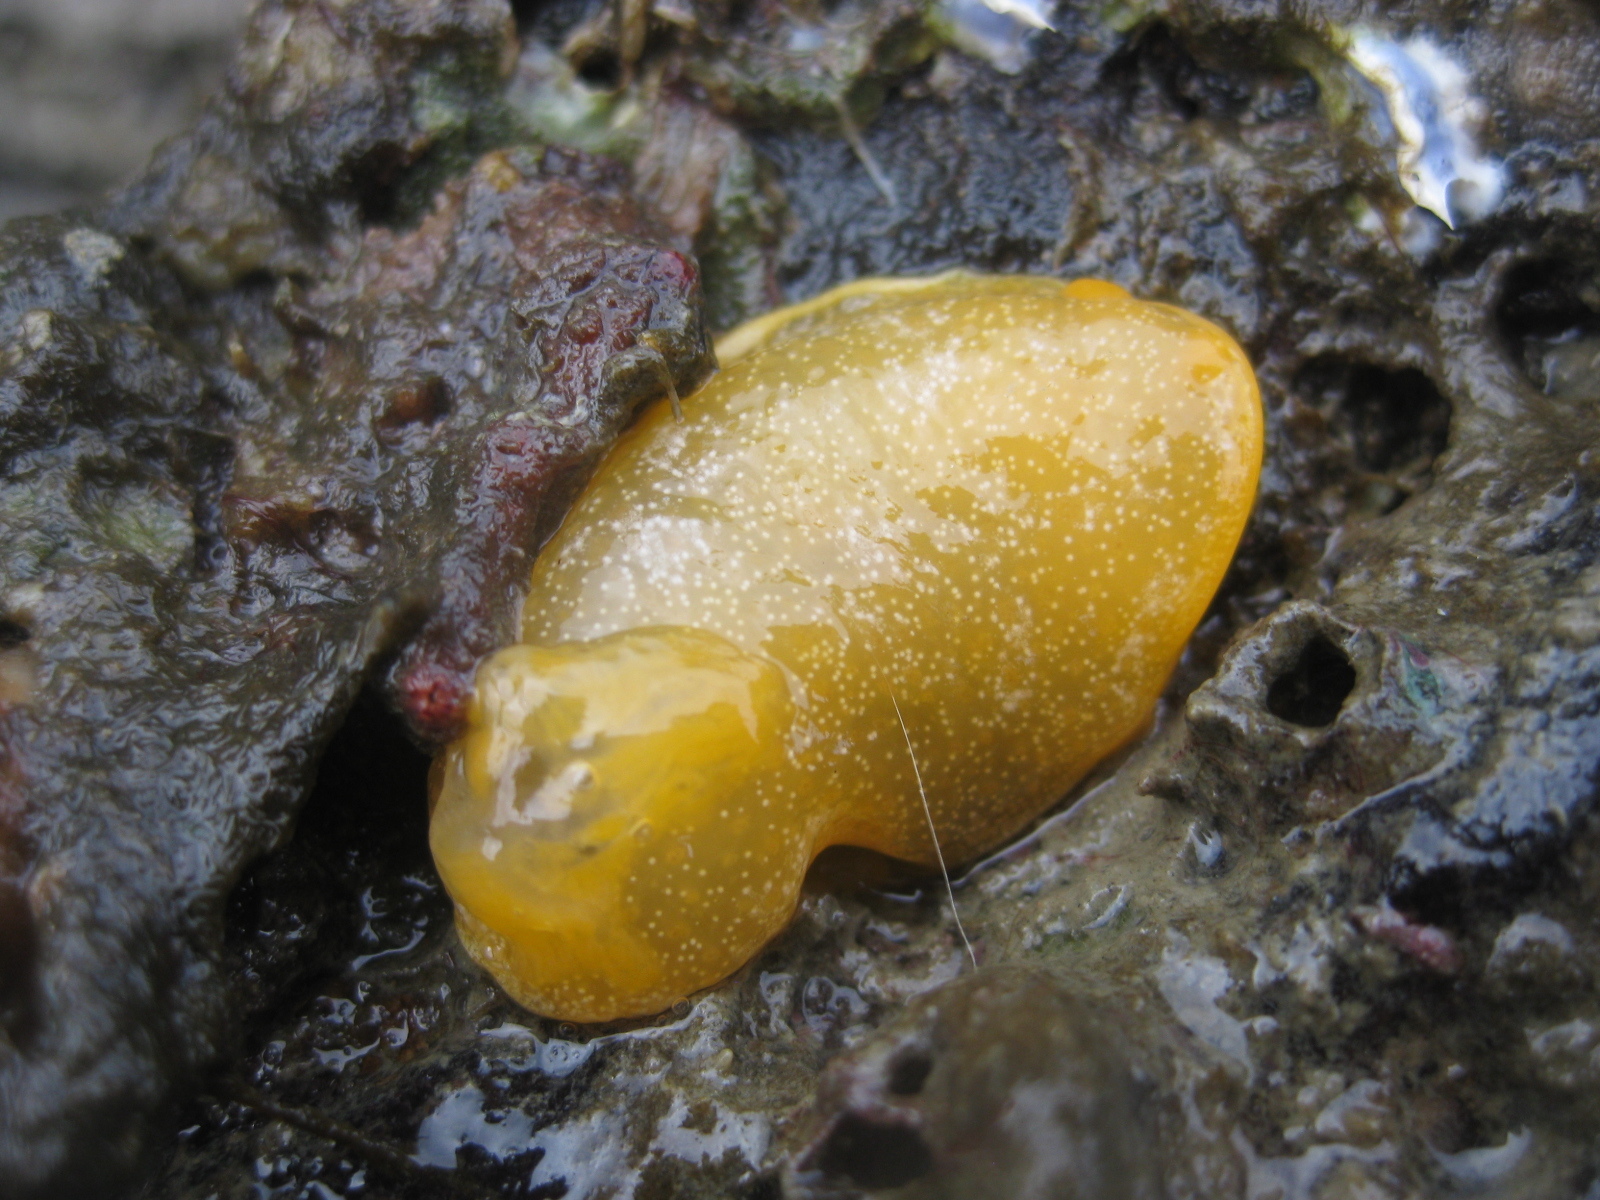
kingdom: Animalia
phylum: Mollusca
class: Gastropoda
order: Nudibranchia
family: Dendrodorididae
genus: Dendrodoris
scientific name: Dendrodoris citrina
